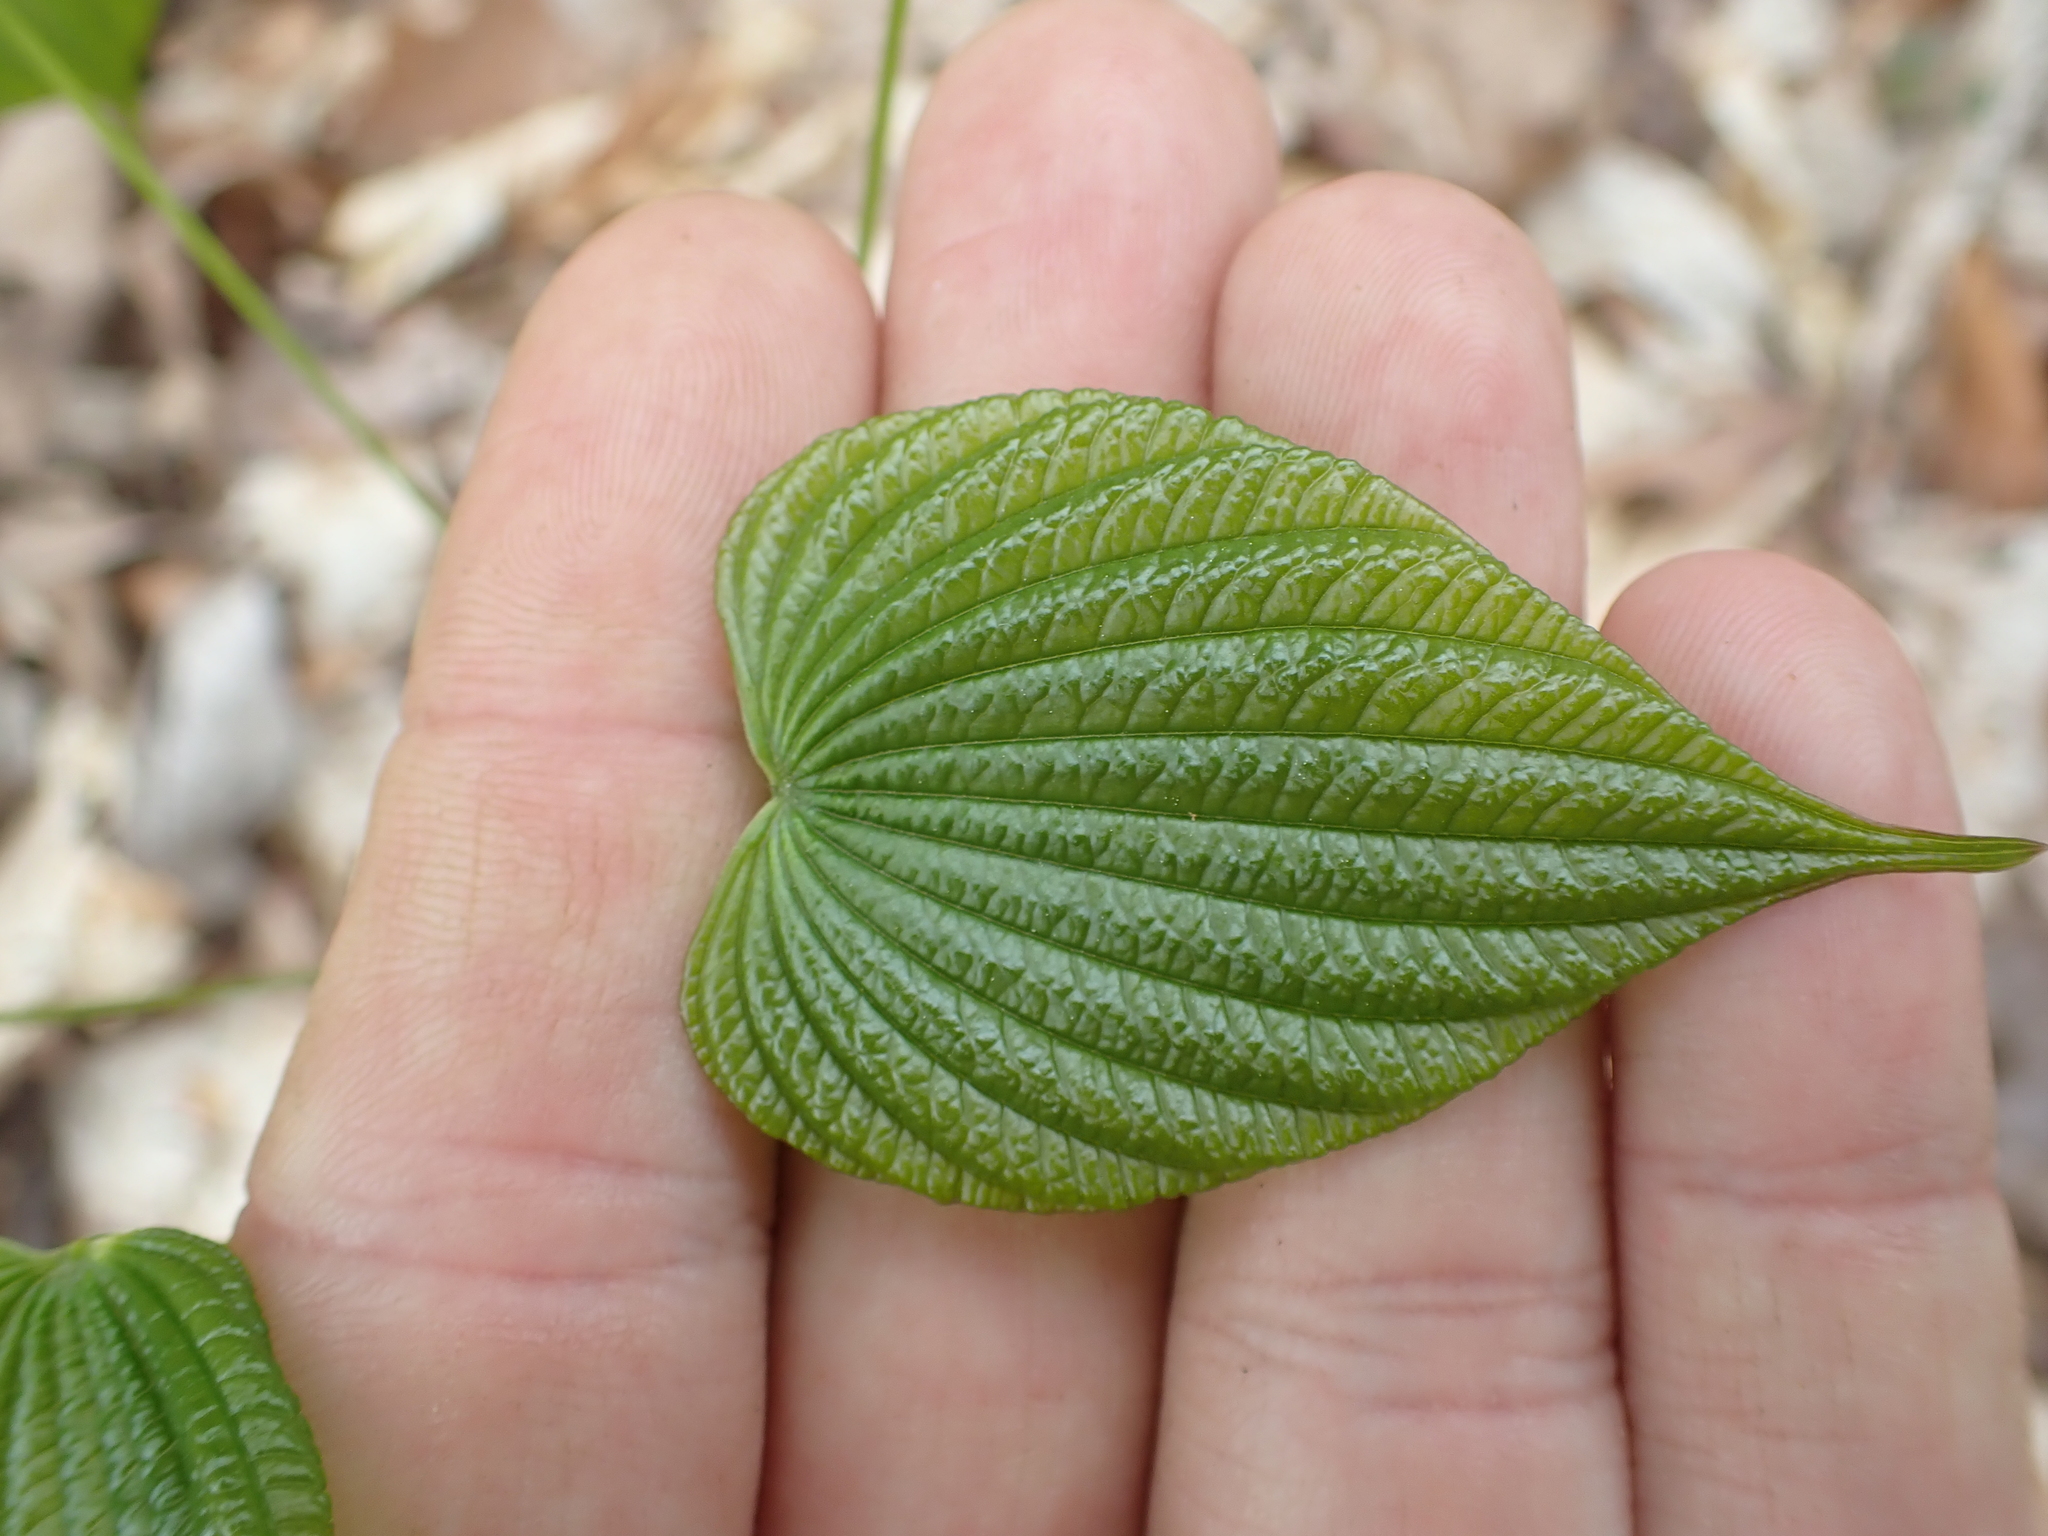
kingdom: Plantae
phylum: Tracheophyta
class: Liliopsida
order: Dioscoreales
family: Dioscoreaceae
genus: Dioscorea
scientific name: Dioscorea villosa
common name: Wild yam
